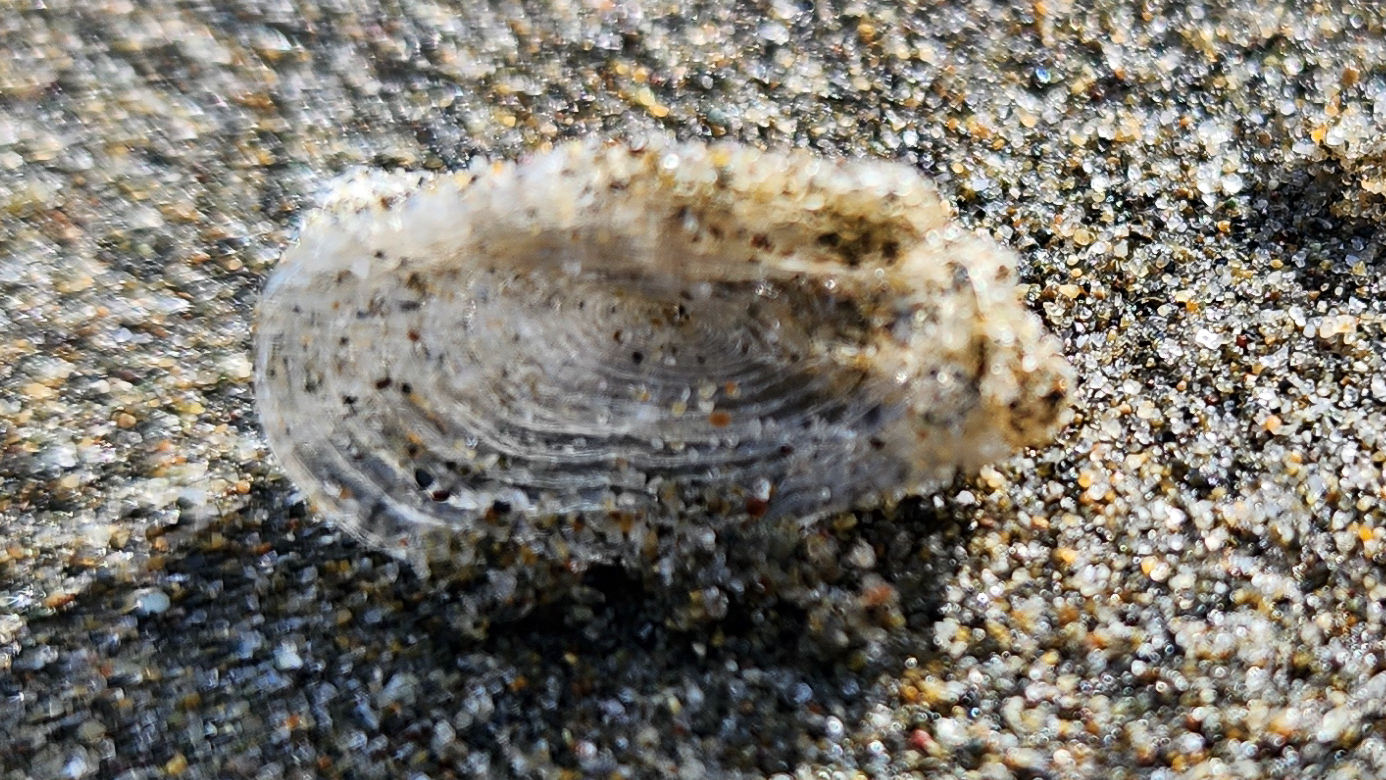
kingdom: Animalia
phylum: Cnidaria
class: Hydrozoa
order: Anthoathecata
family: Porpitidae
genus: Velella
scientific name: Velella velella
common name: By-the-wind-sailor
